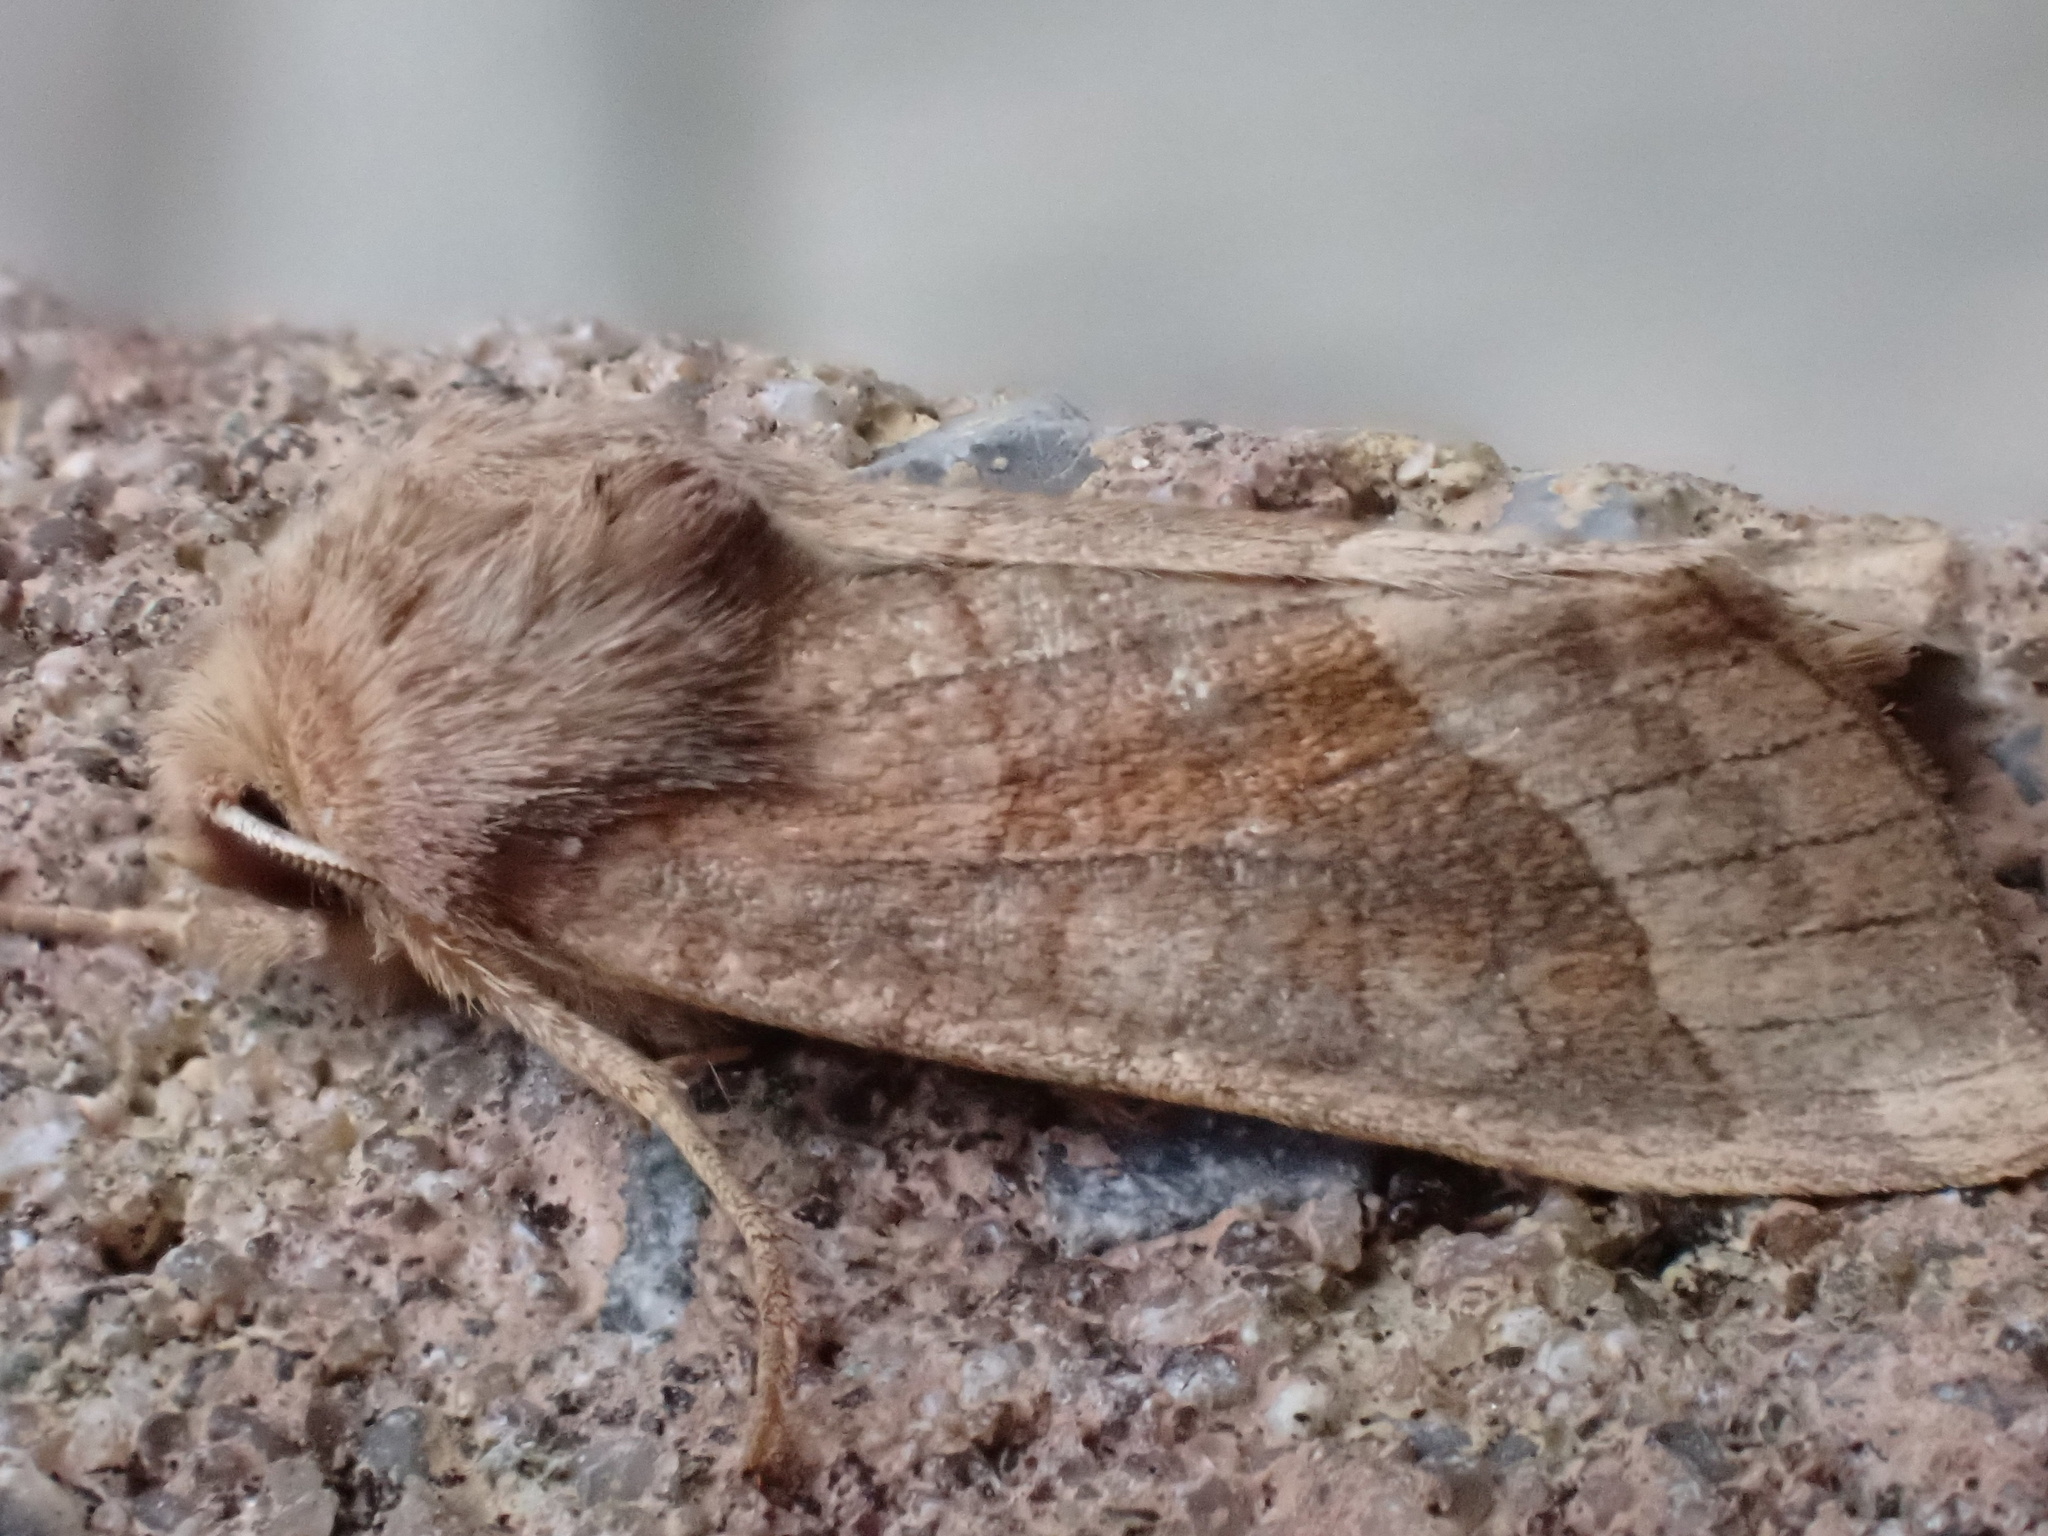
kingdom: Animalia
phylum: Arthropoda
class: Insecta
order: Lepidoptera
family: Noctuidae
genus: Hydraecia
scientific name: Hydraecia micacea
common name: Rosy rustic
